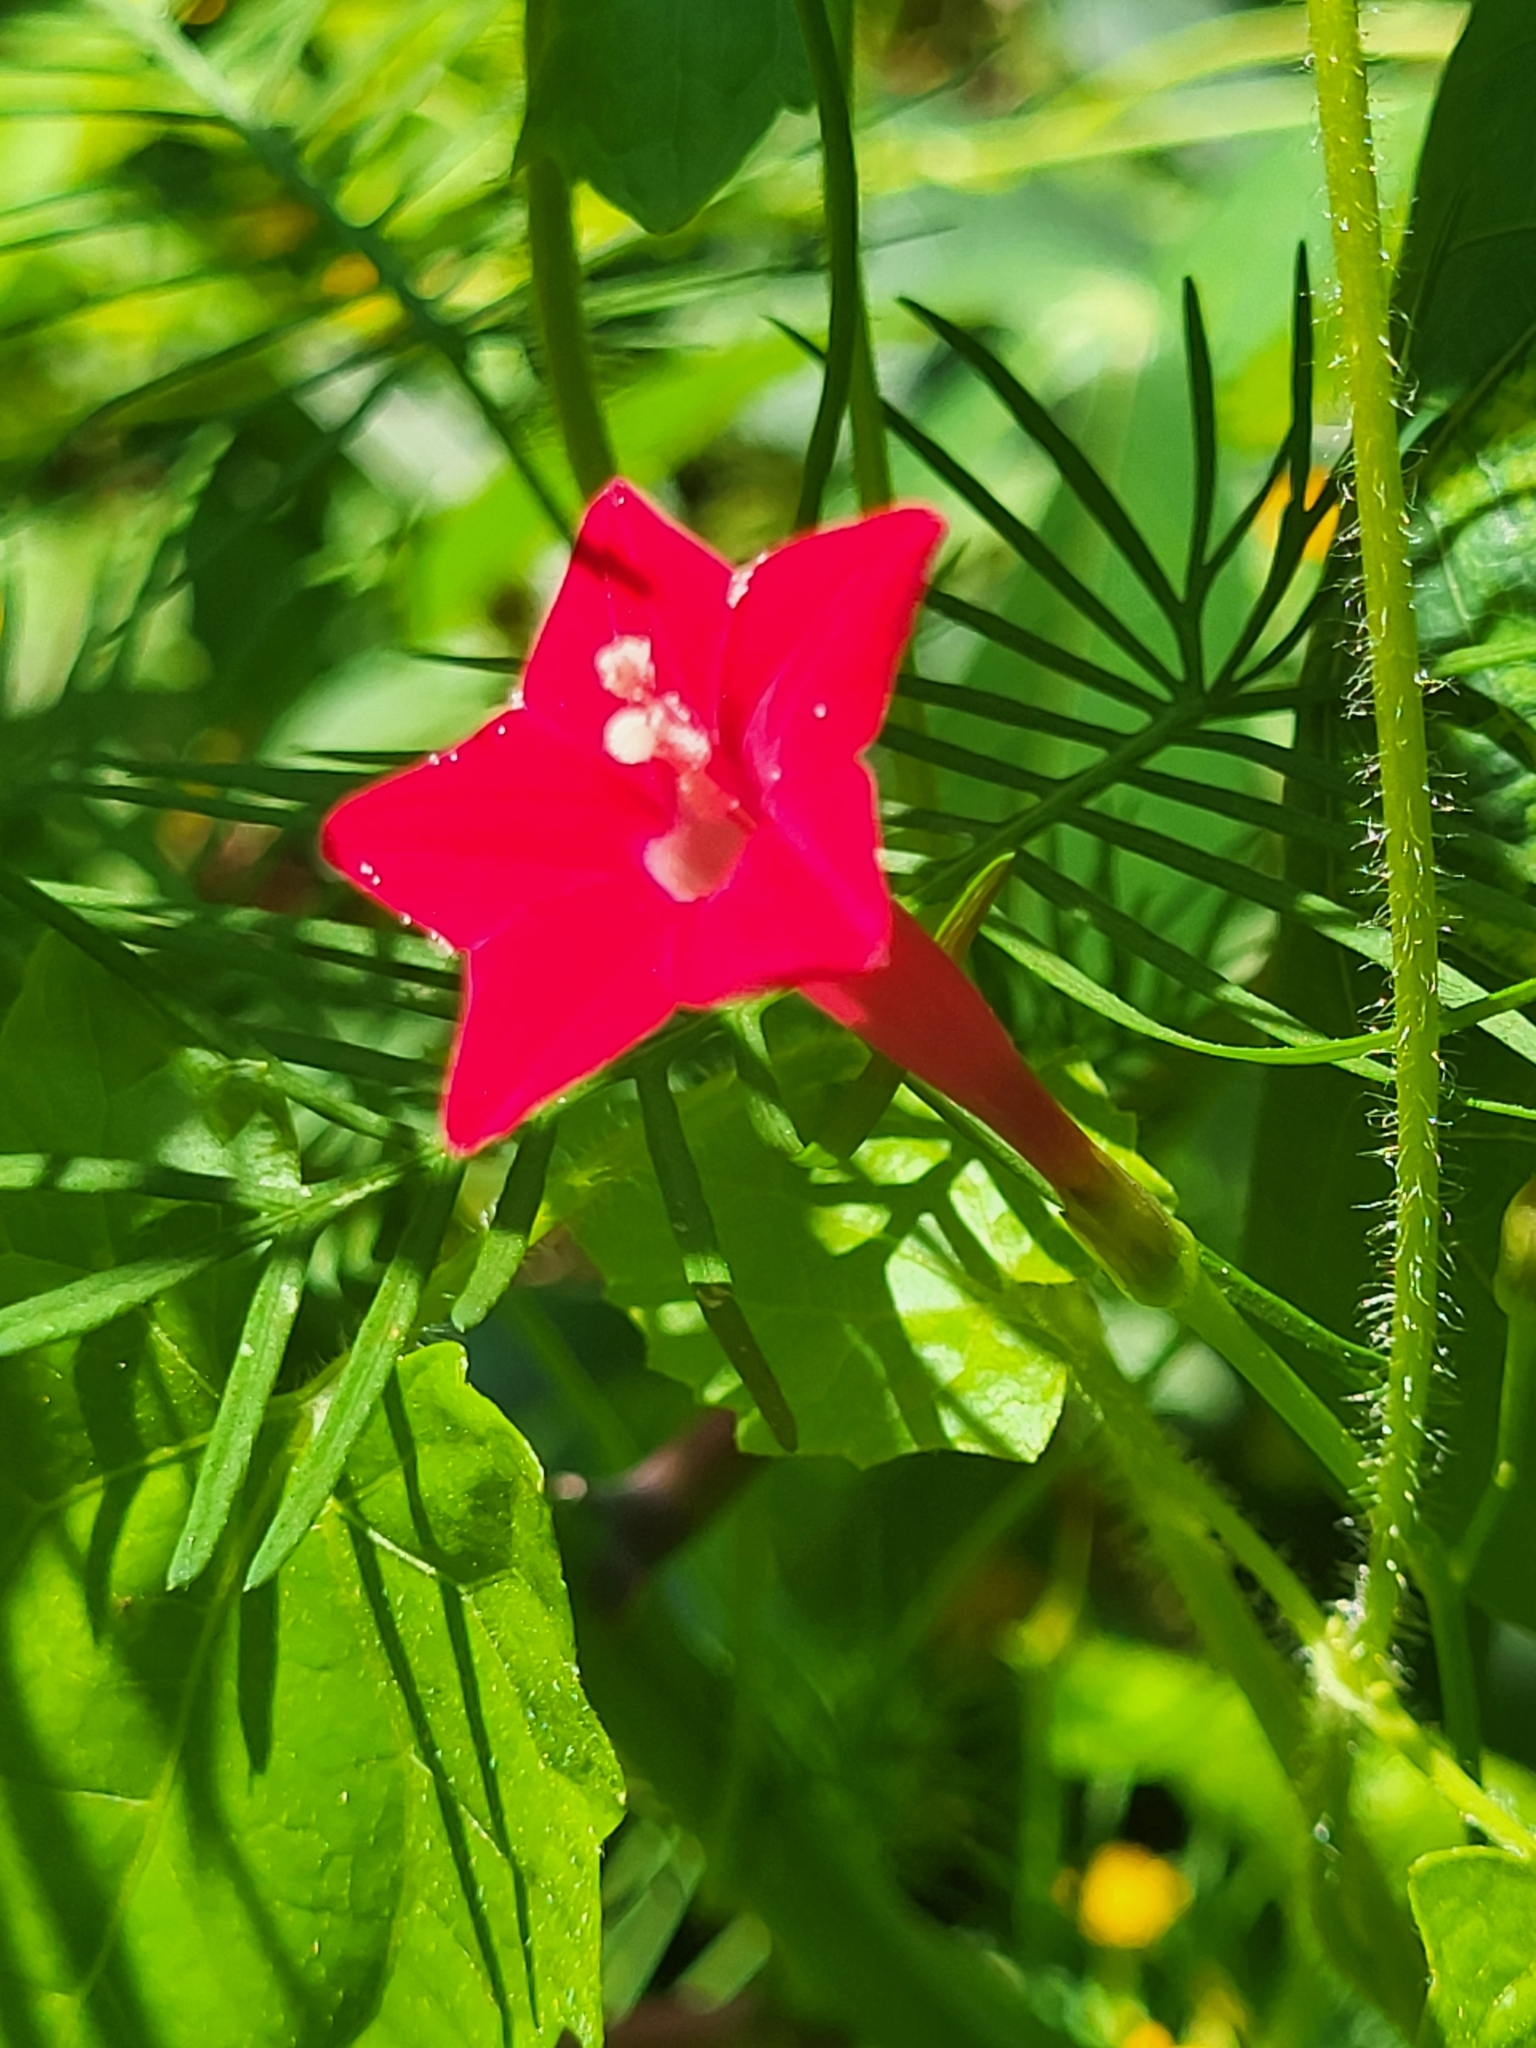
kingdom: Plantae
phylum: Tracheophyta
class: Magnoliopsida
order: Solanales
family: Convolvulaceae
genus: Ipomoea
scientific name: Ipomoea quamoclit
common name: Cypress vine
